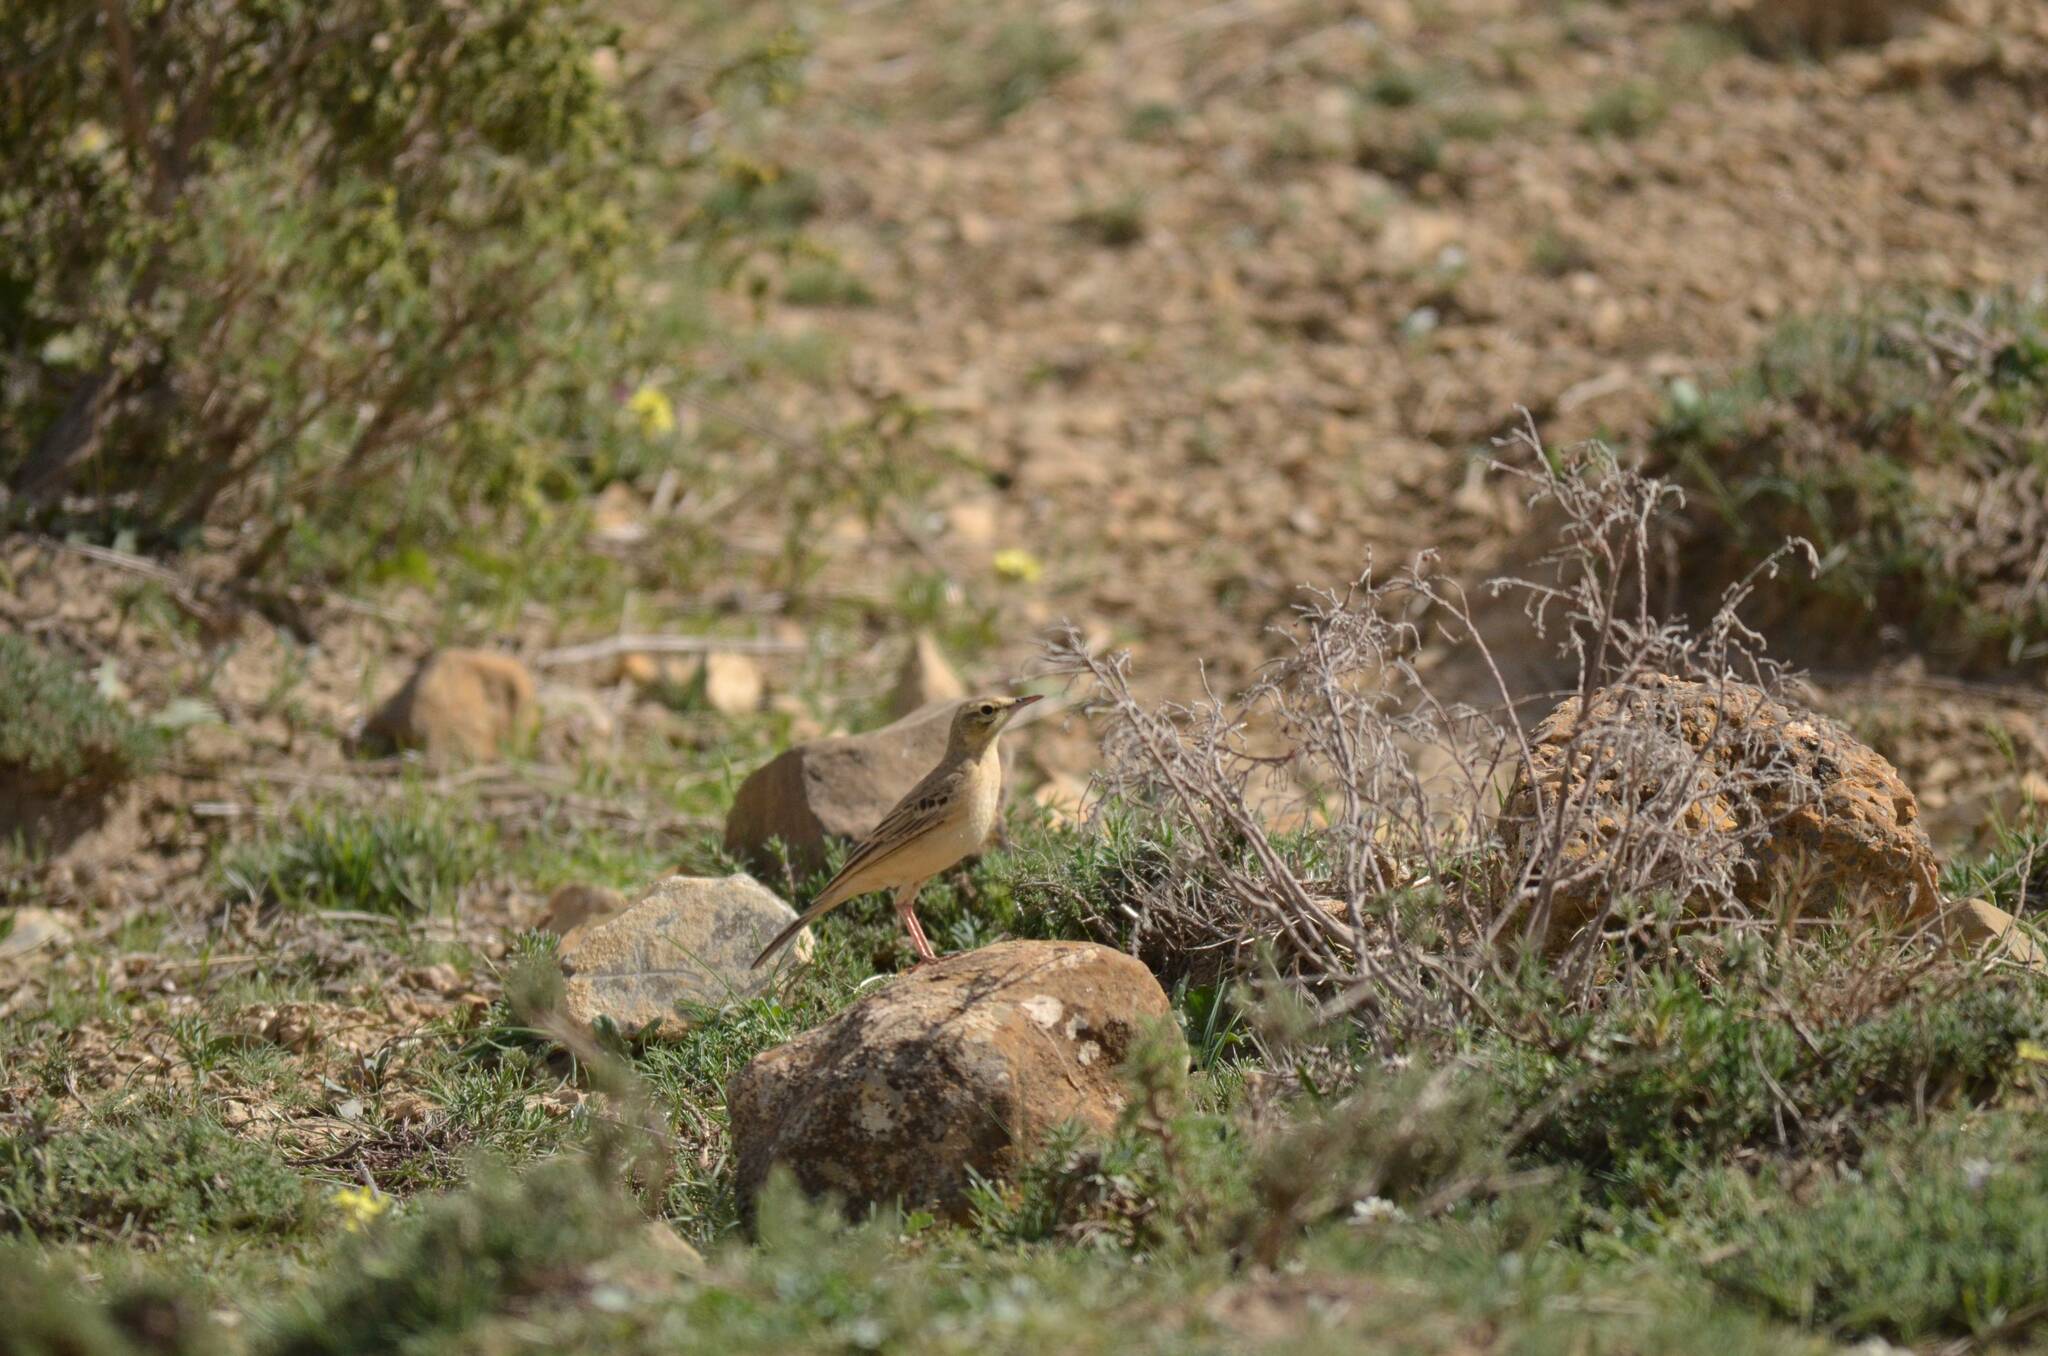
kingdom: Animalia
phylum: Chordata
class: Aves
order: Passeriformes
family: Motacillidae
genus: Anthus
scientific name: Anthus campestris
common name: Tawny pipit
